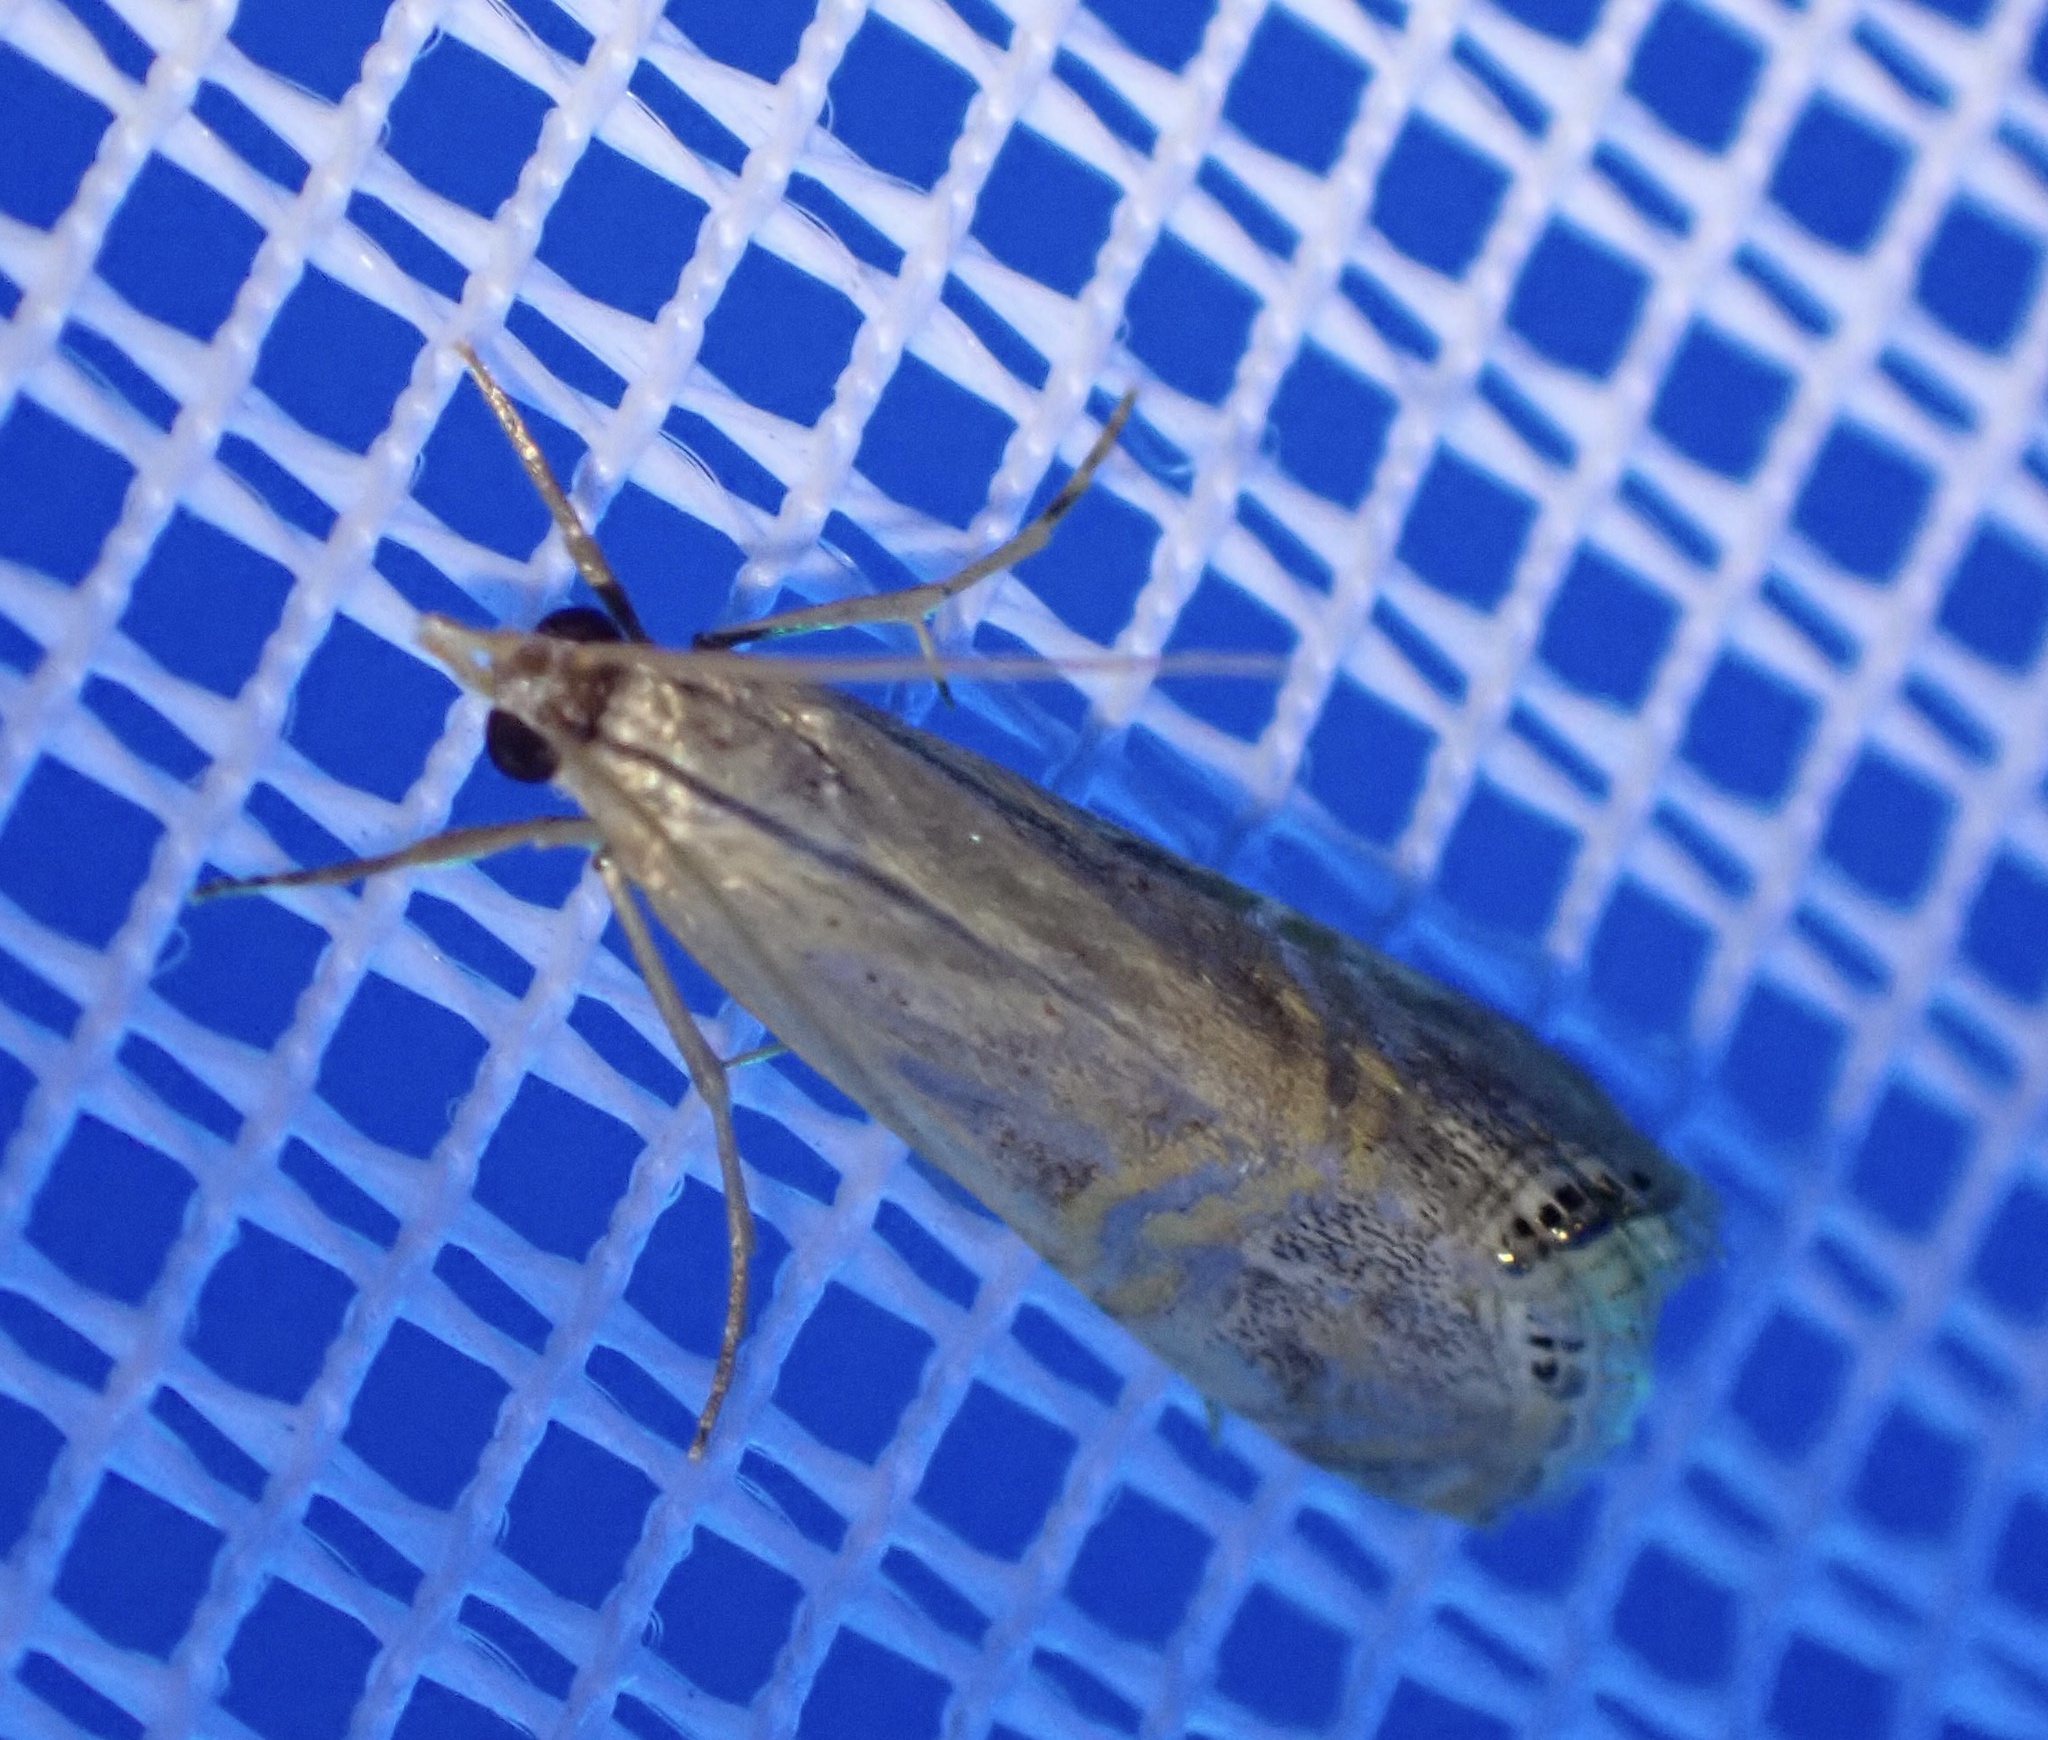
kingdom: Animalia
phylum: Arthropoda
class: Insecta
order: Lepidoptera
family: Crambidae
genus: Euchromius
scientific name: Euchromius ocellea
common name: Necklace veneer moth
